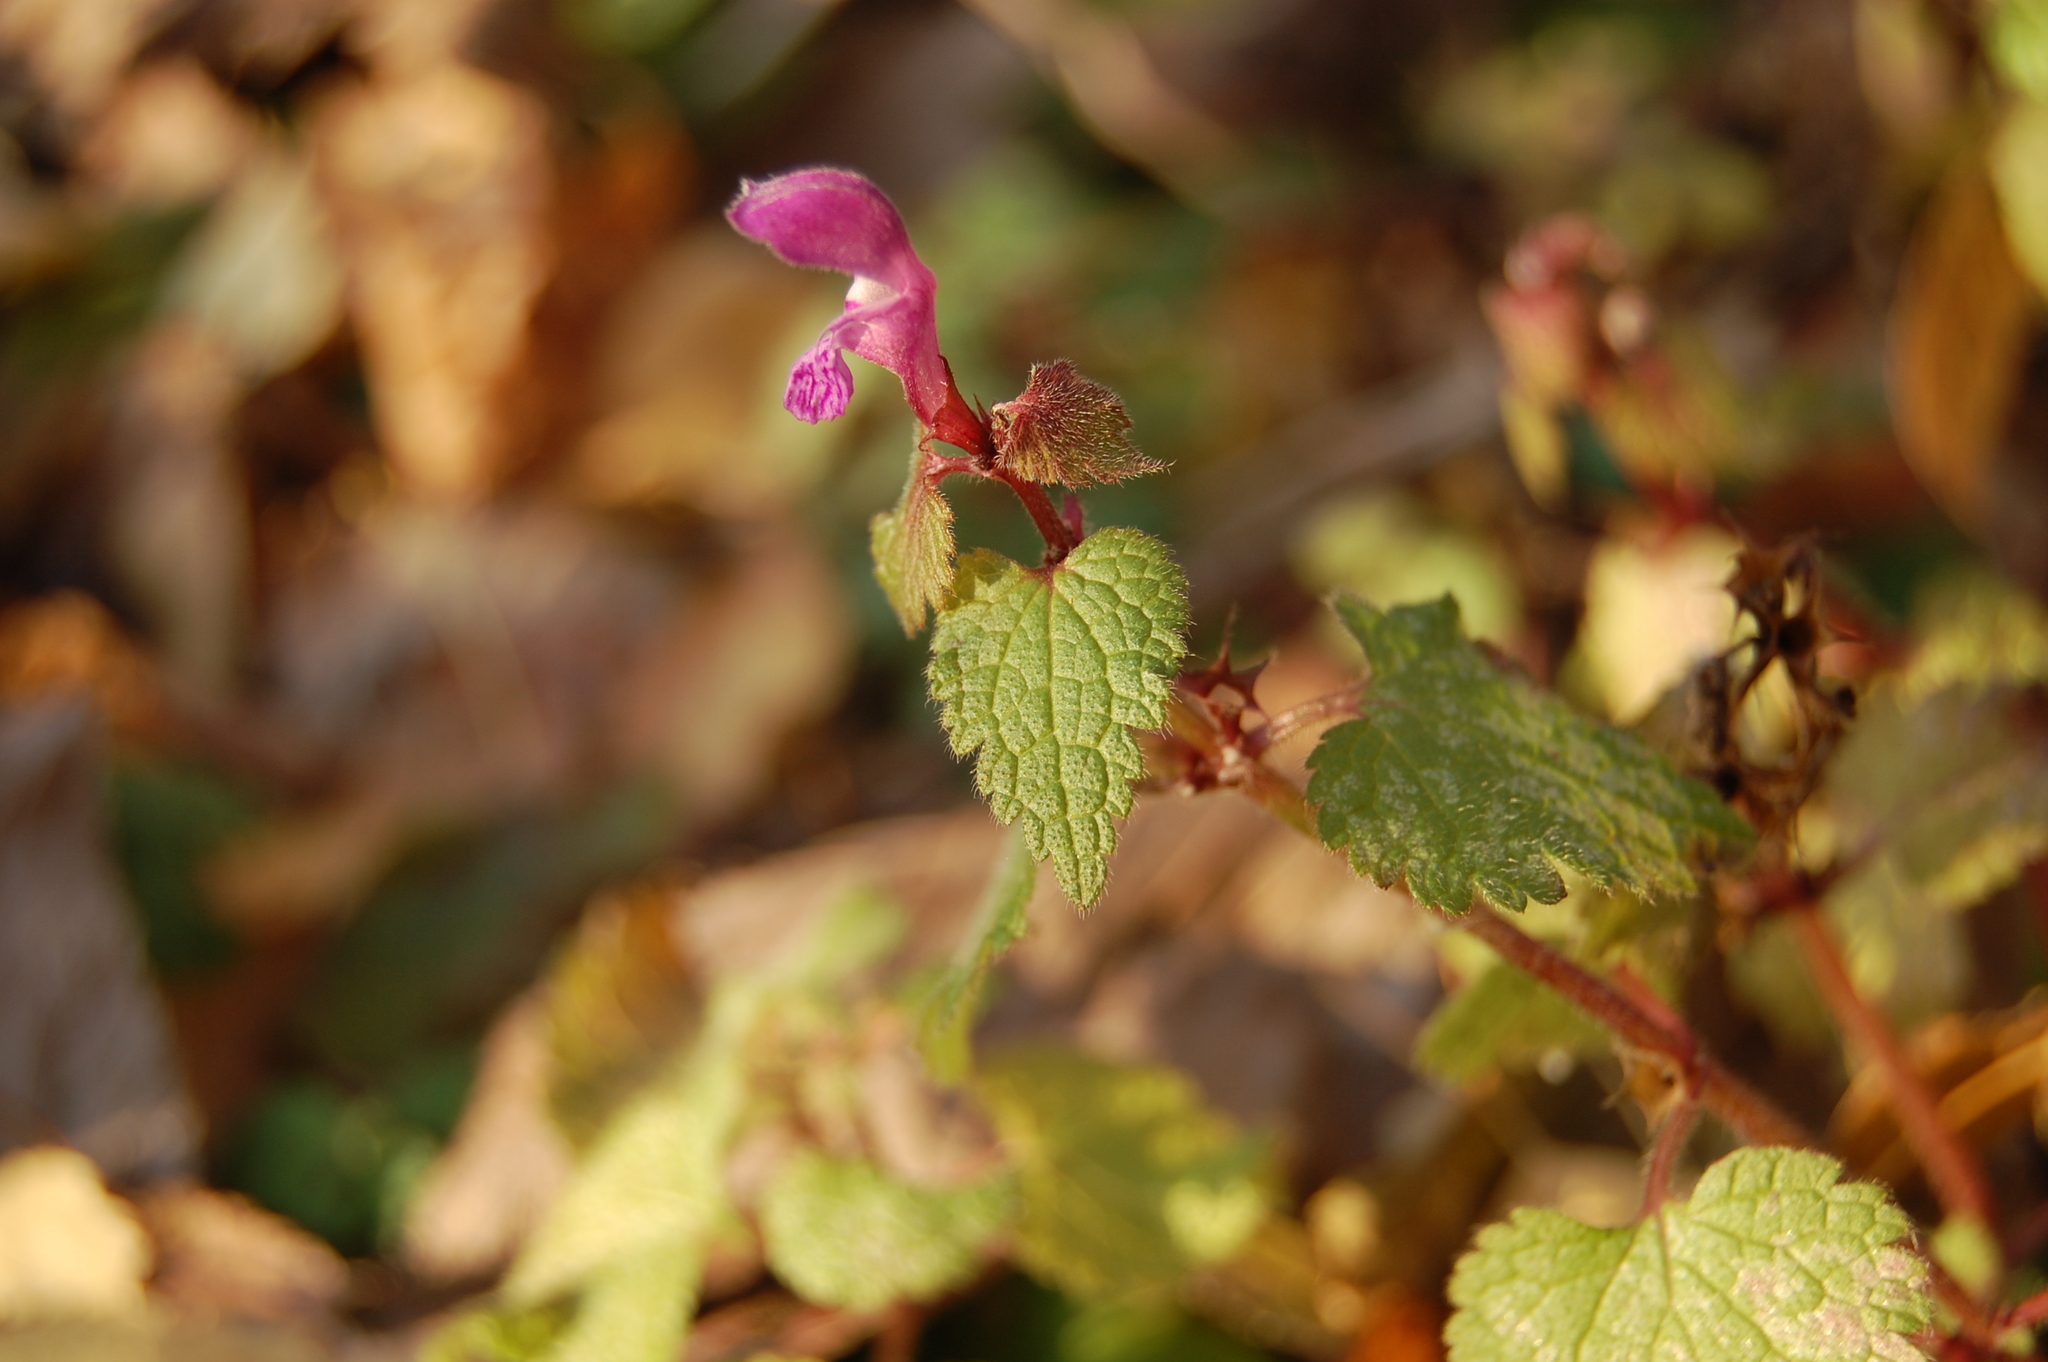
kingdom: Plantae
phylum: Tracheophyta
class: Magnoliopsida
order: Lamiales
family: Lamiaceae
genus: Lamium
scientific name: Lamium maculatum
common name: Spotted dead-nettle
